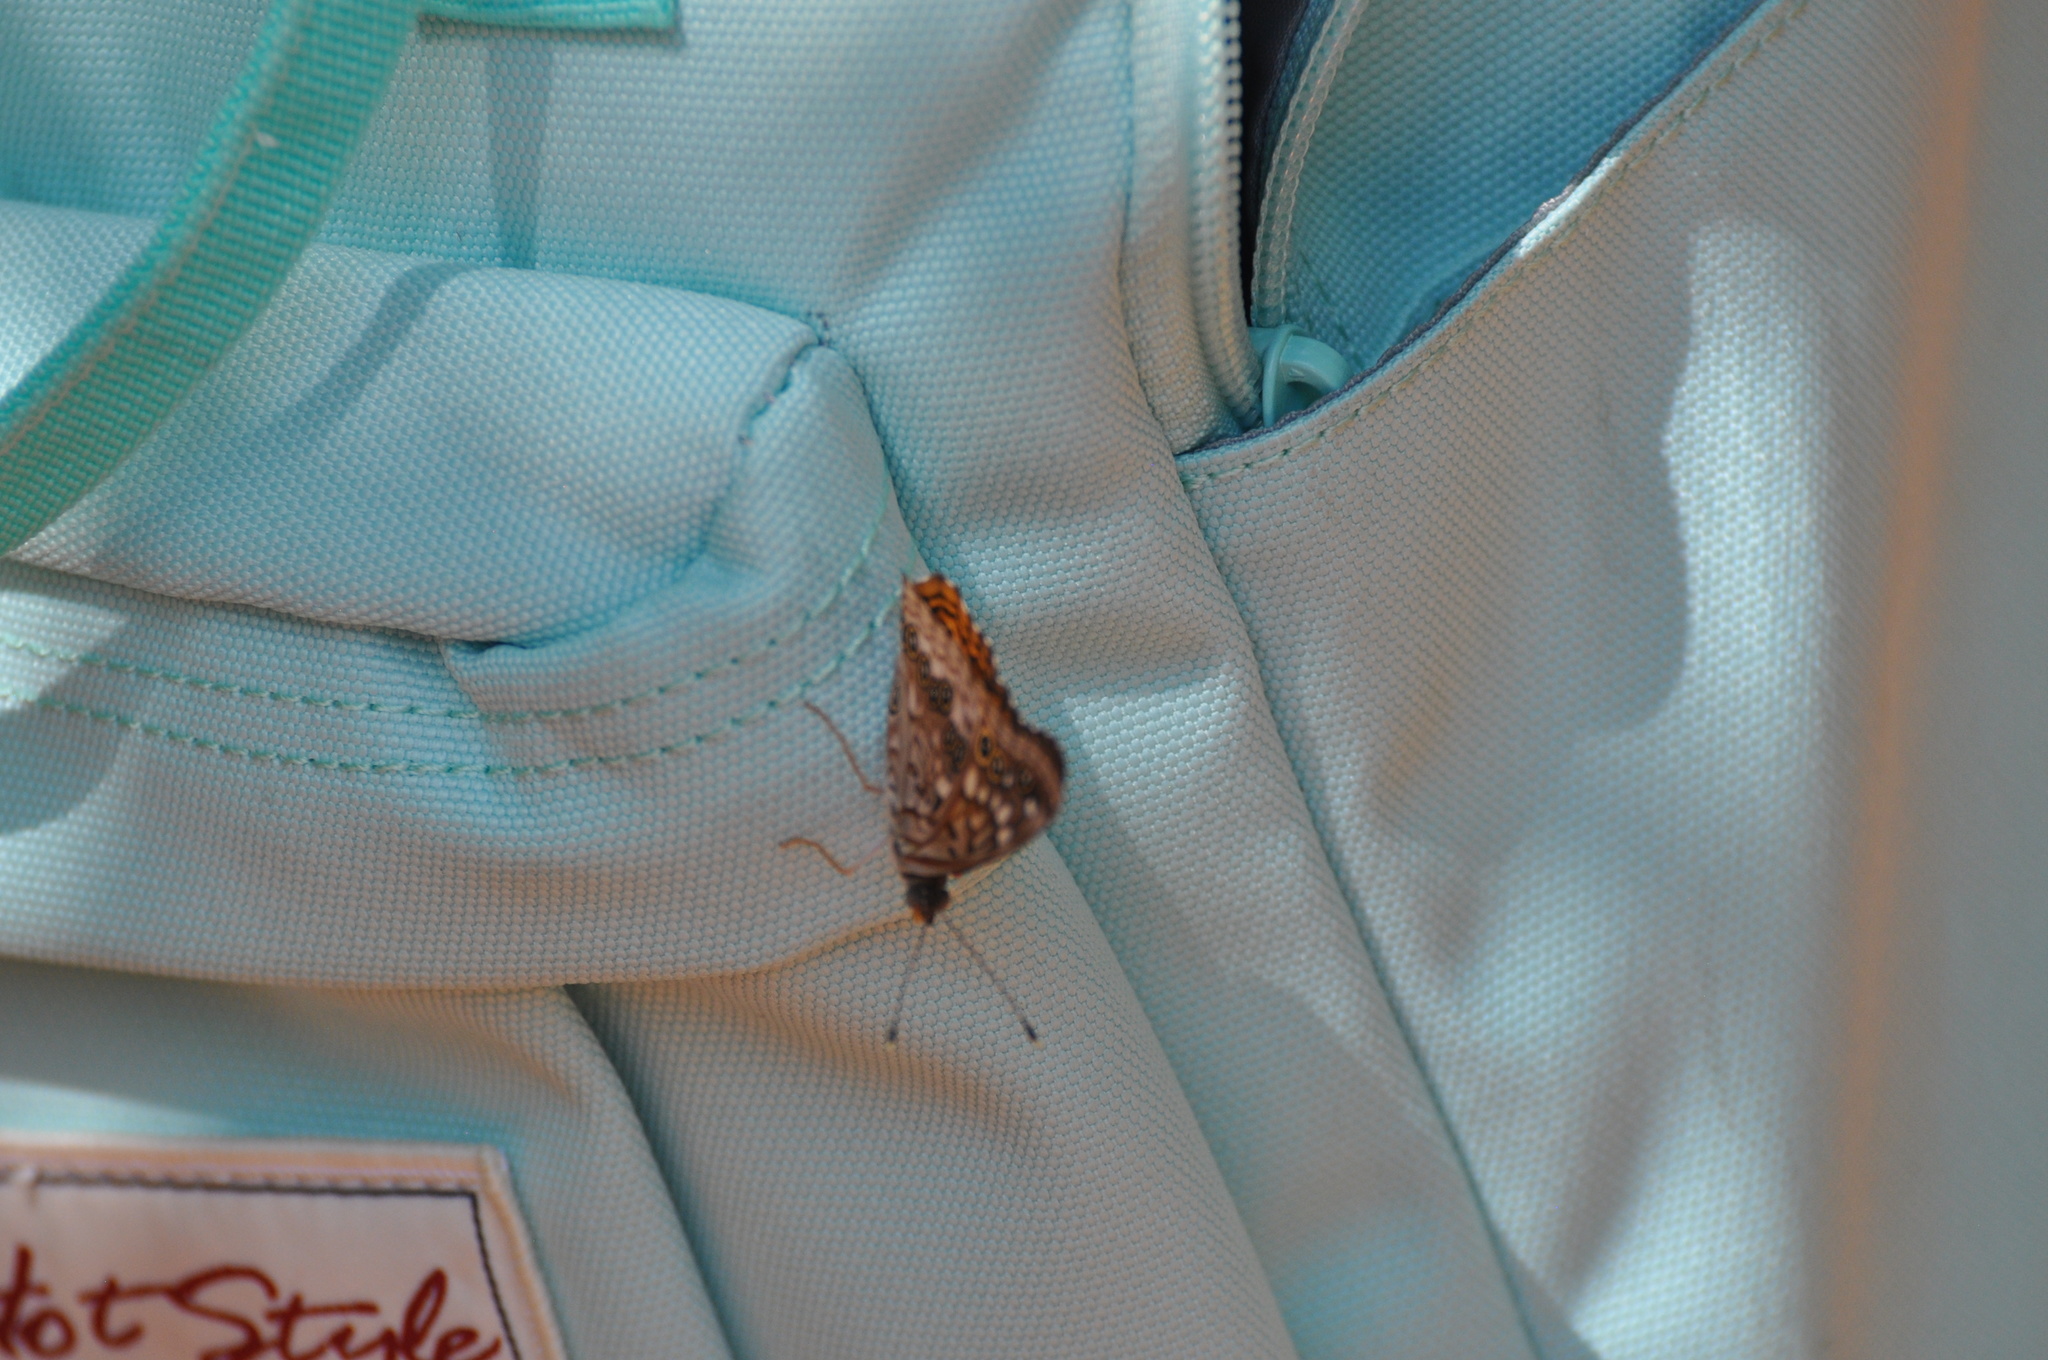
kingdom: Animalia
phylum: Arthropoda
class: Insecta
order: Lepidoptera
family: Nymphalidae
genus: Asterocampa
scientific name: Asterocampa celtis
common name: Hackberry emperor
